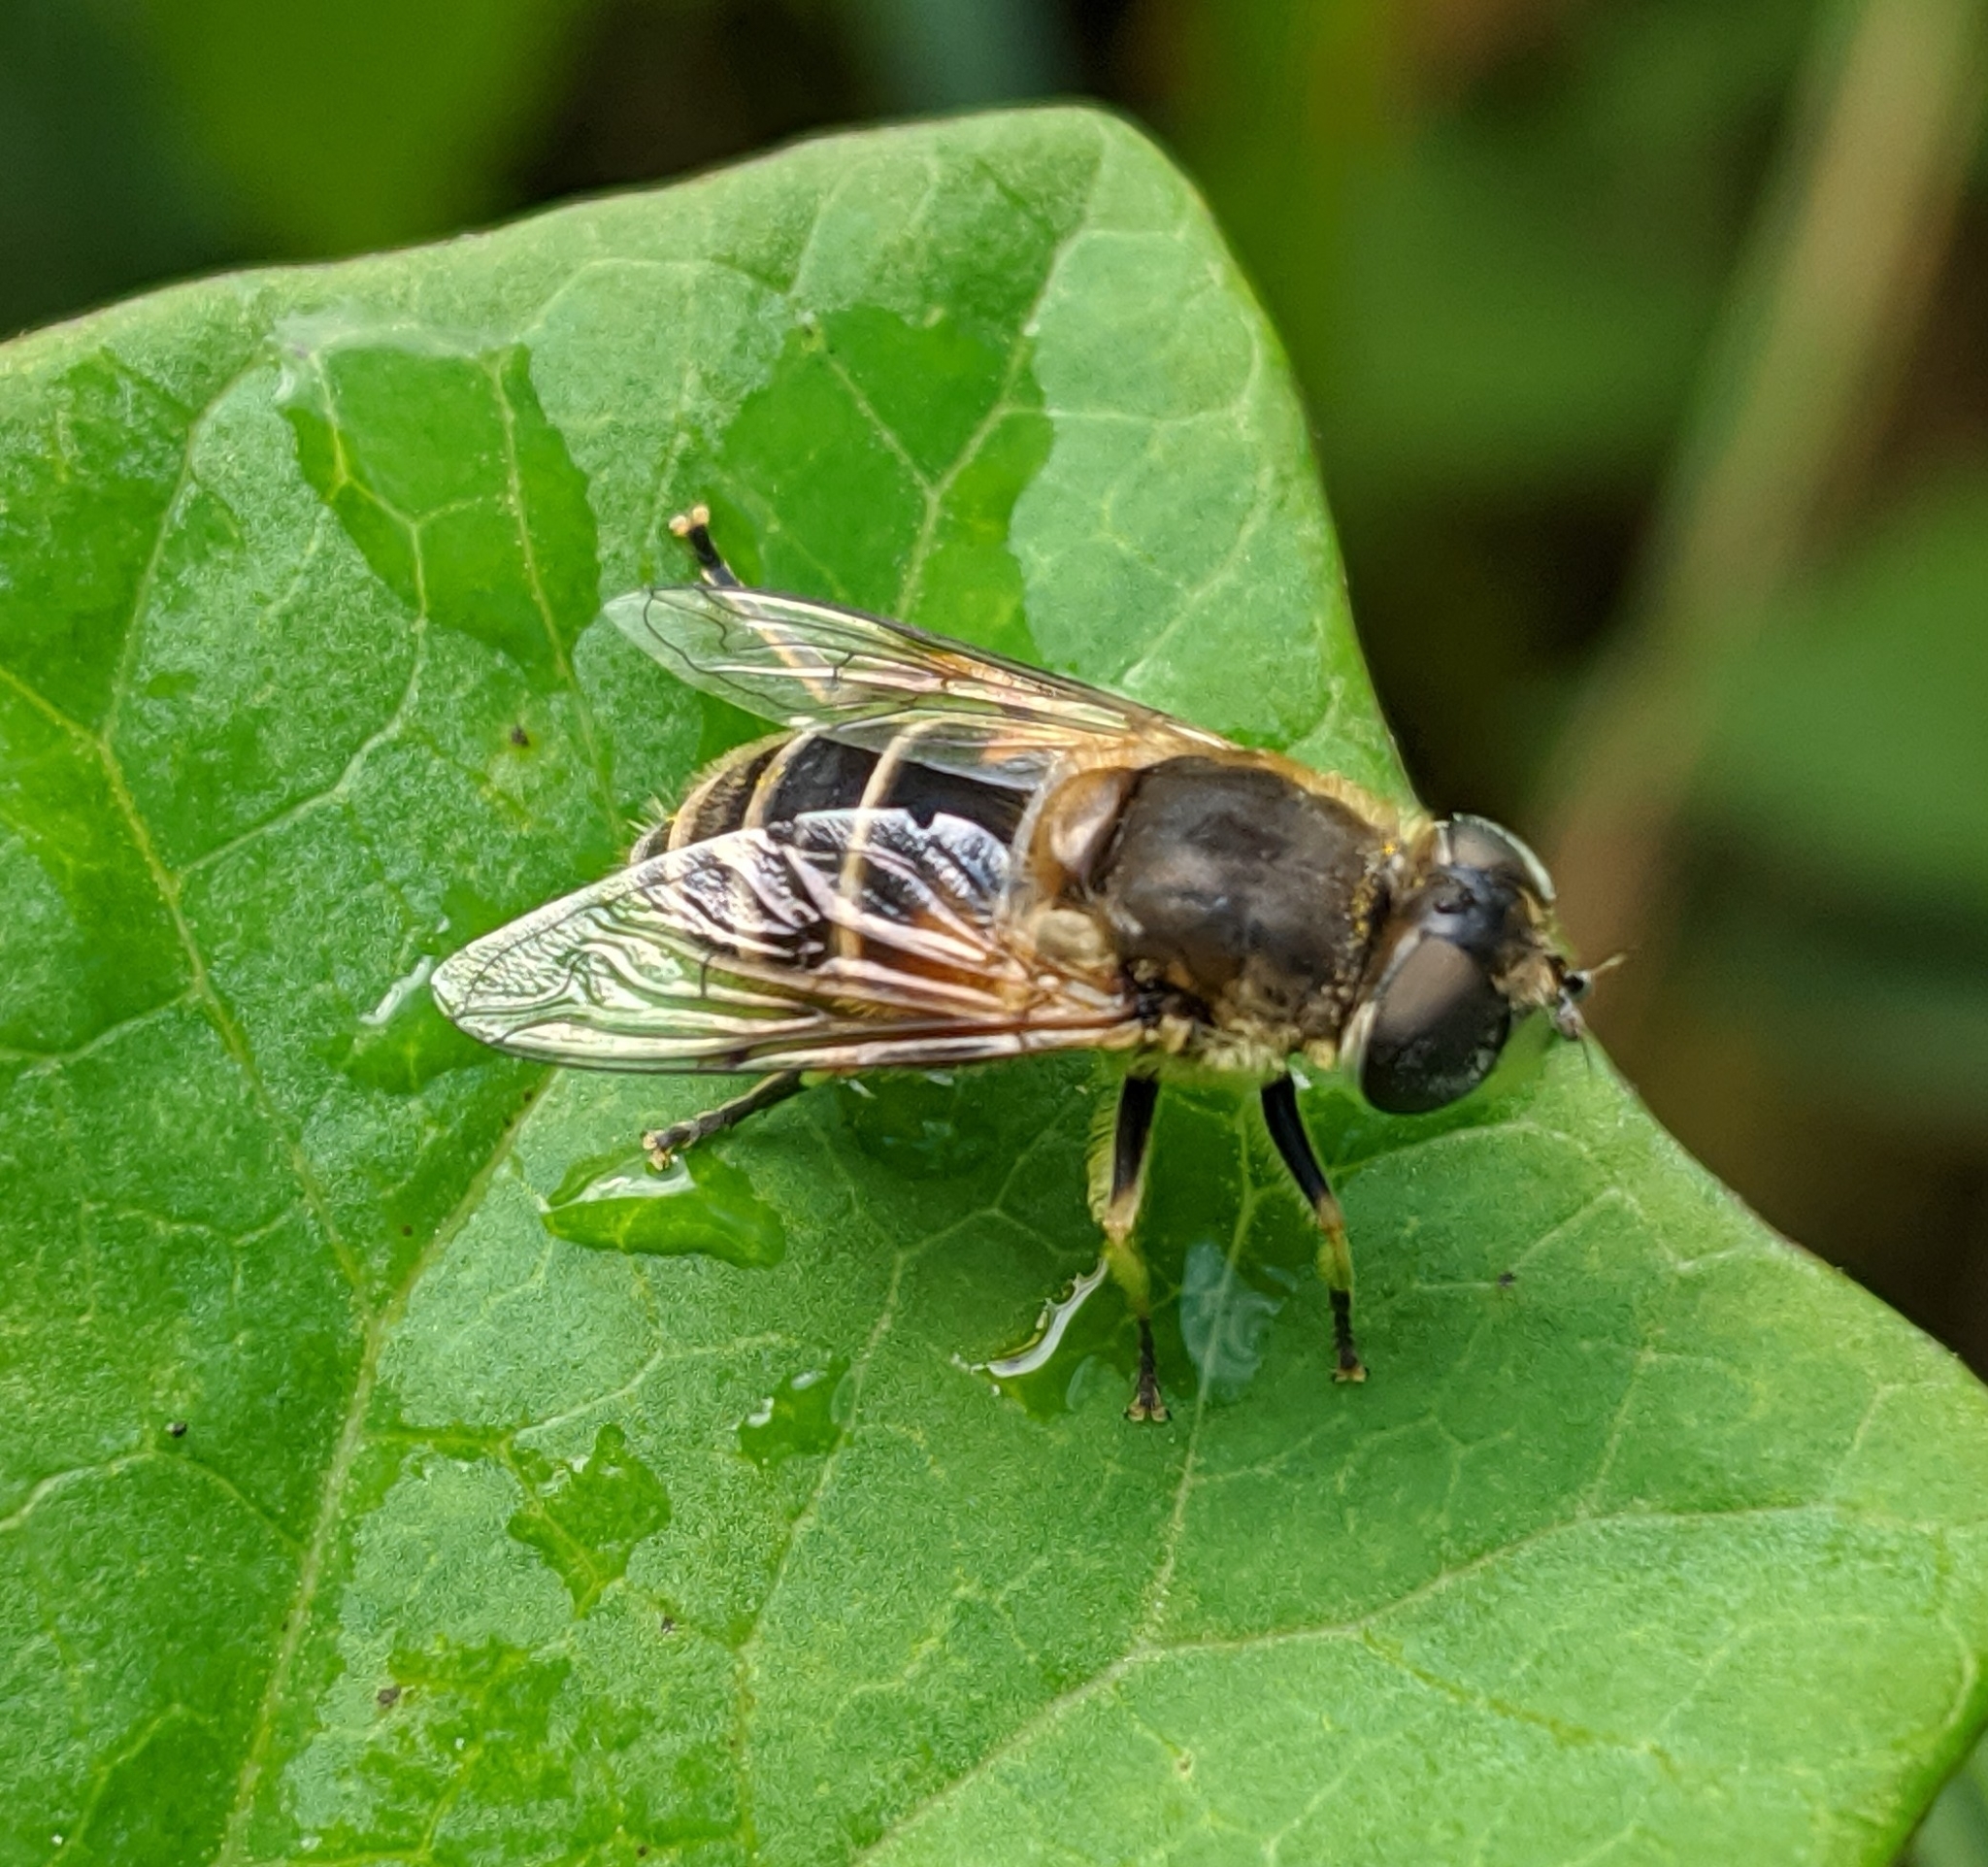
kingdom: Animalia
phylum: Arthropoda
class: Insecta
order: Diptera
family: Syrphidae
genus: Eristalis
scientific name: Eristalis
